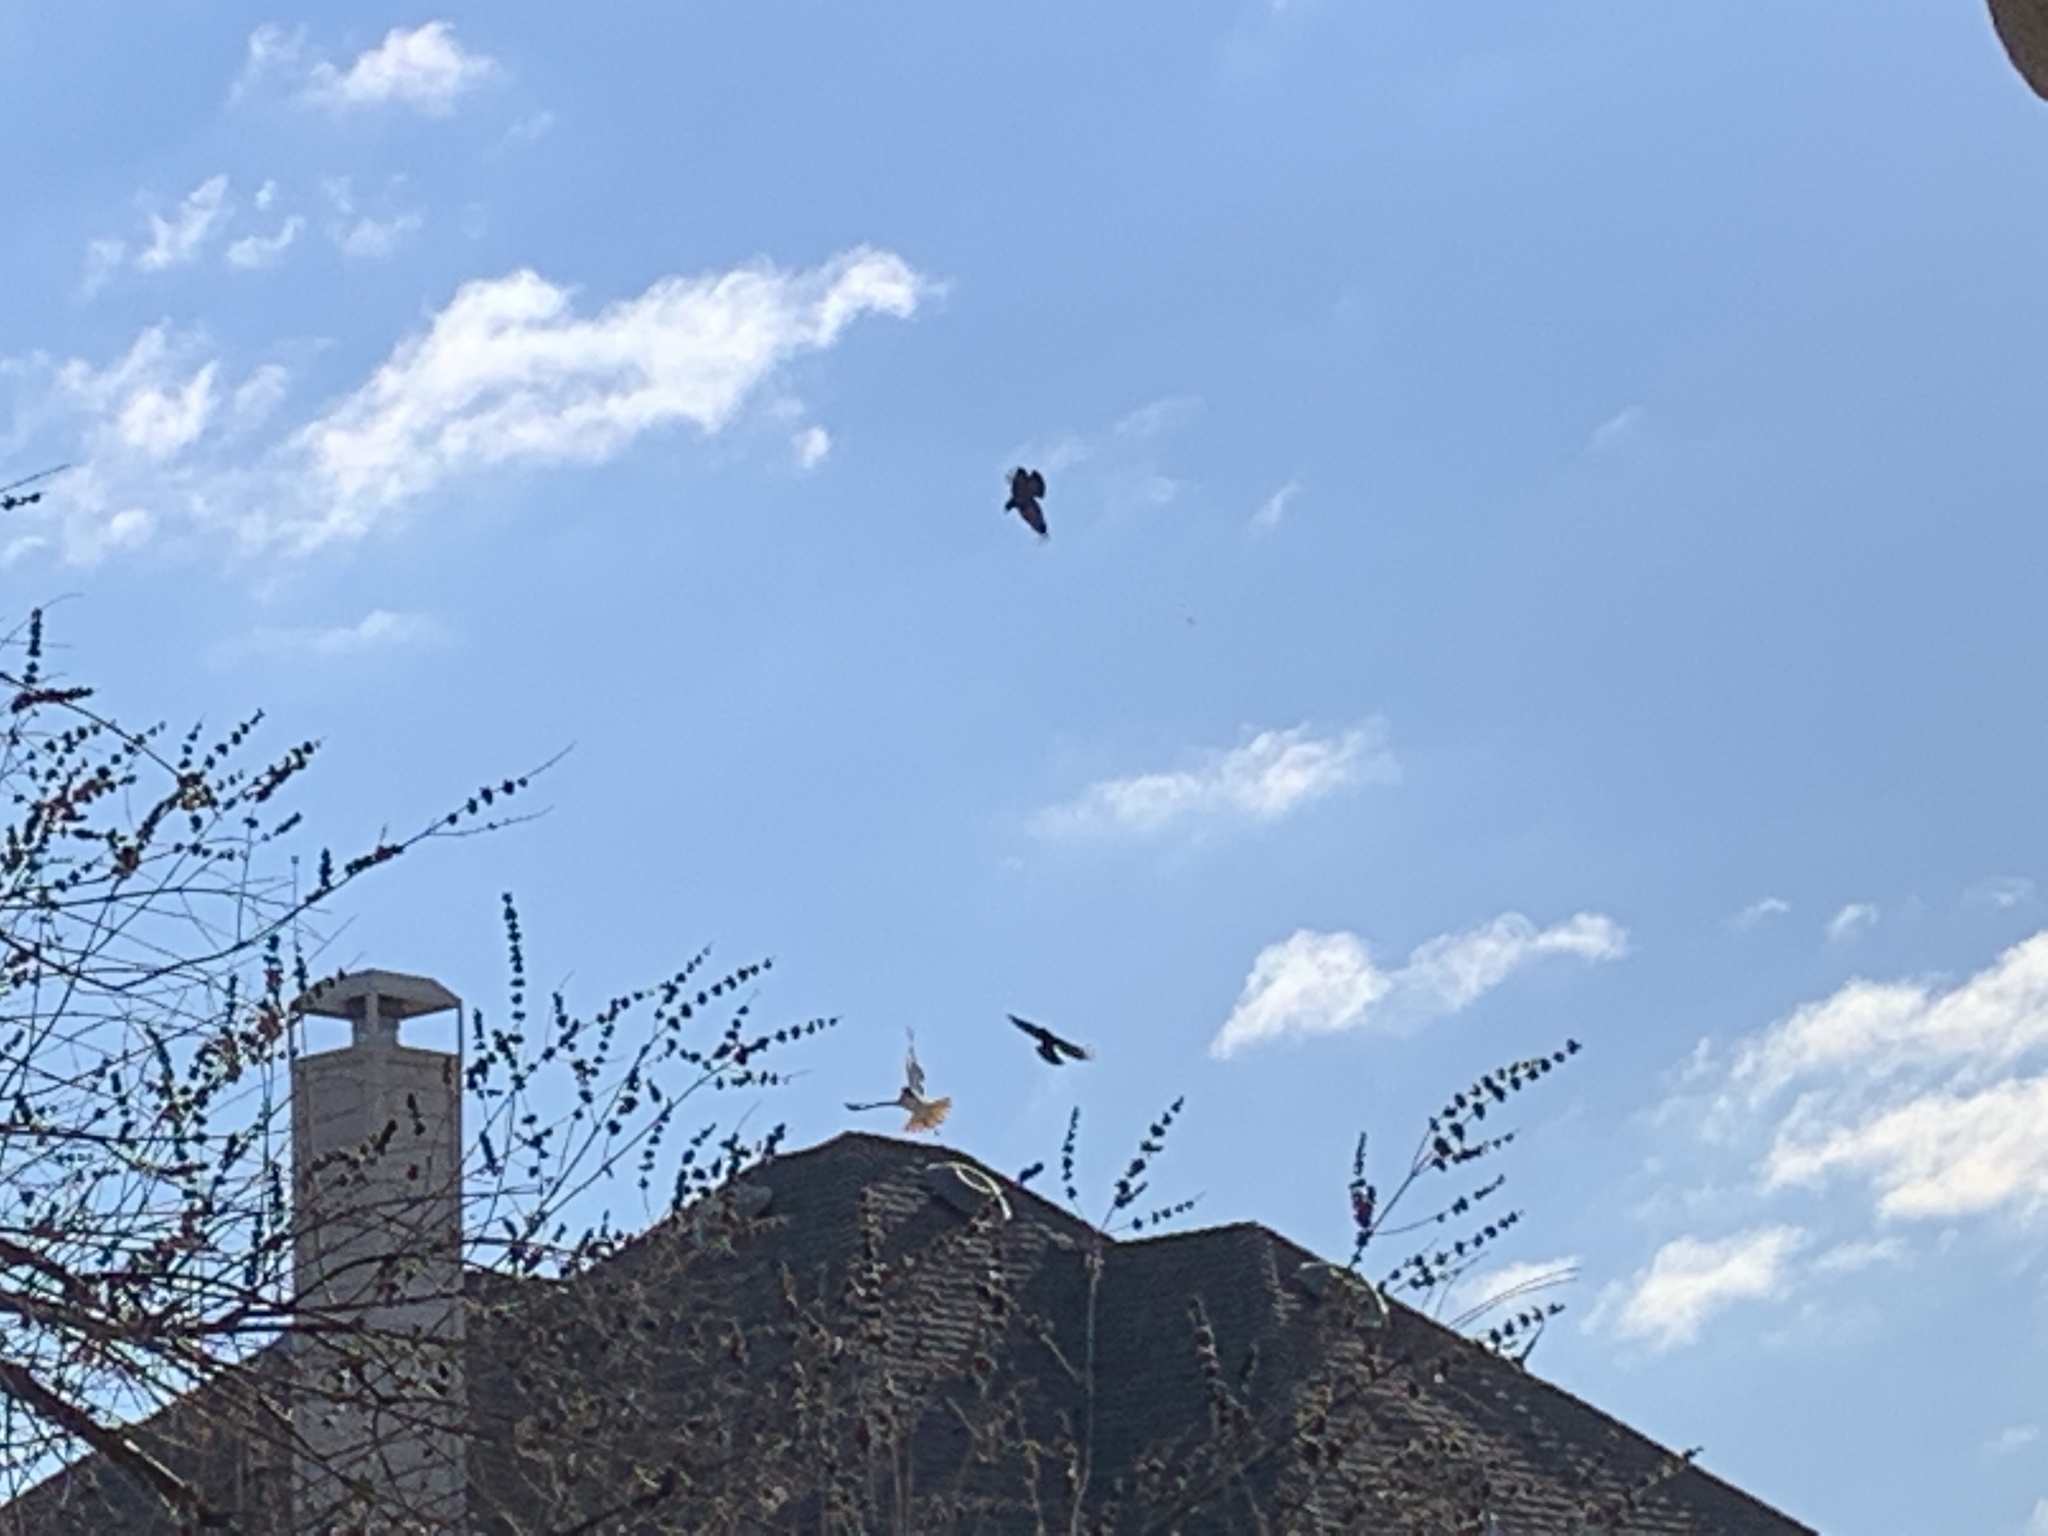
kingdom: Animalia
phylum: Chordata
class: Aves
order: Accipitriformes
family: Accipitridae
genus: Buteo
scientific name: Buteo jamaicensis
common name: Red-tailed hawk
